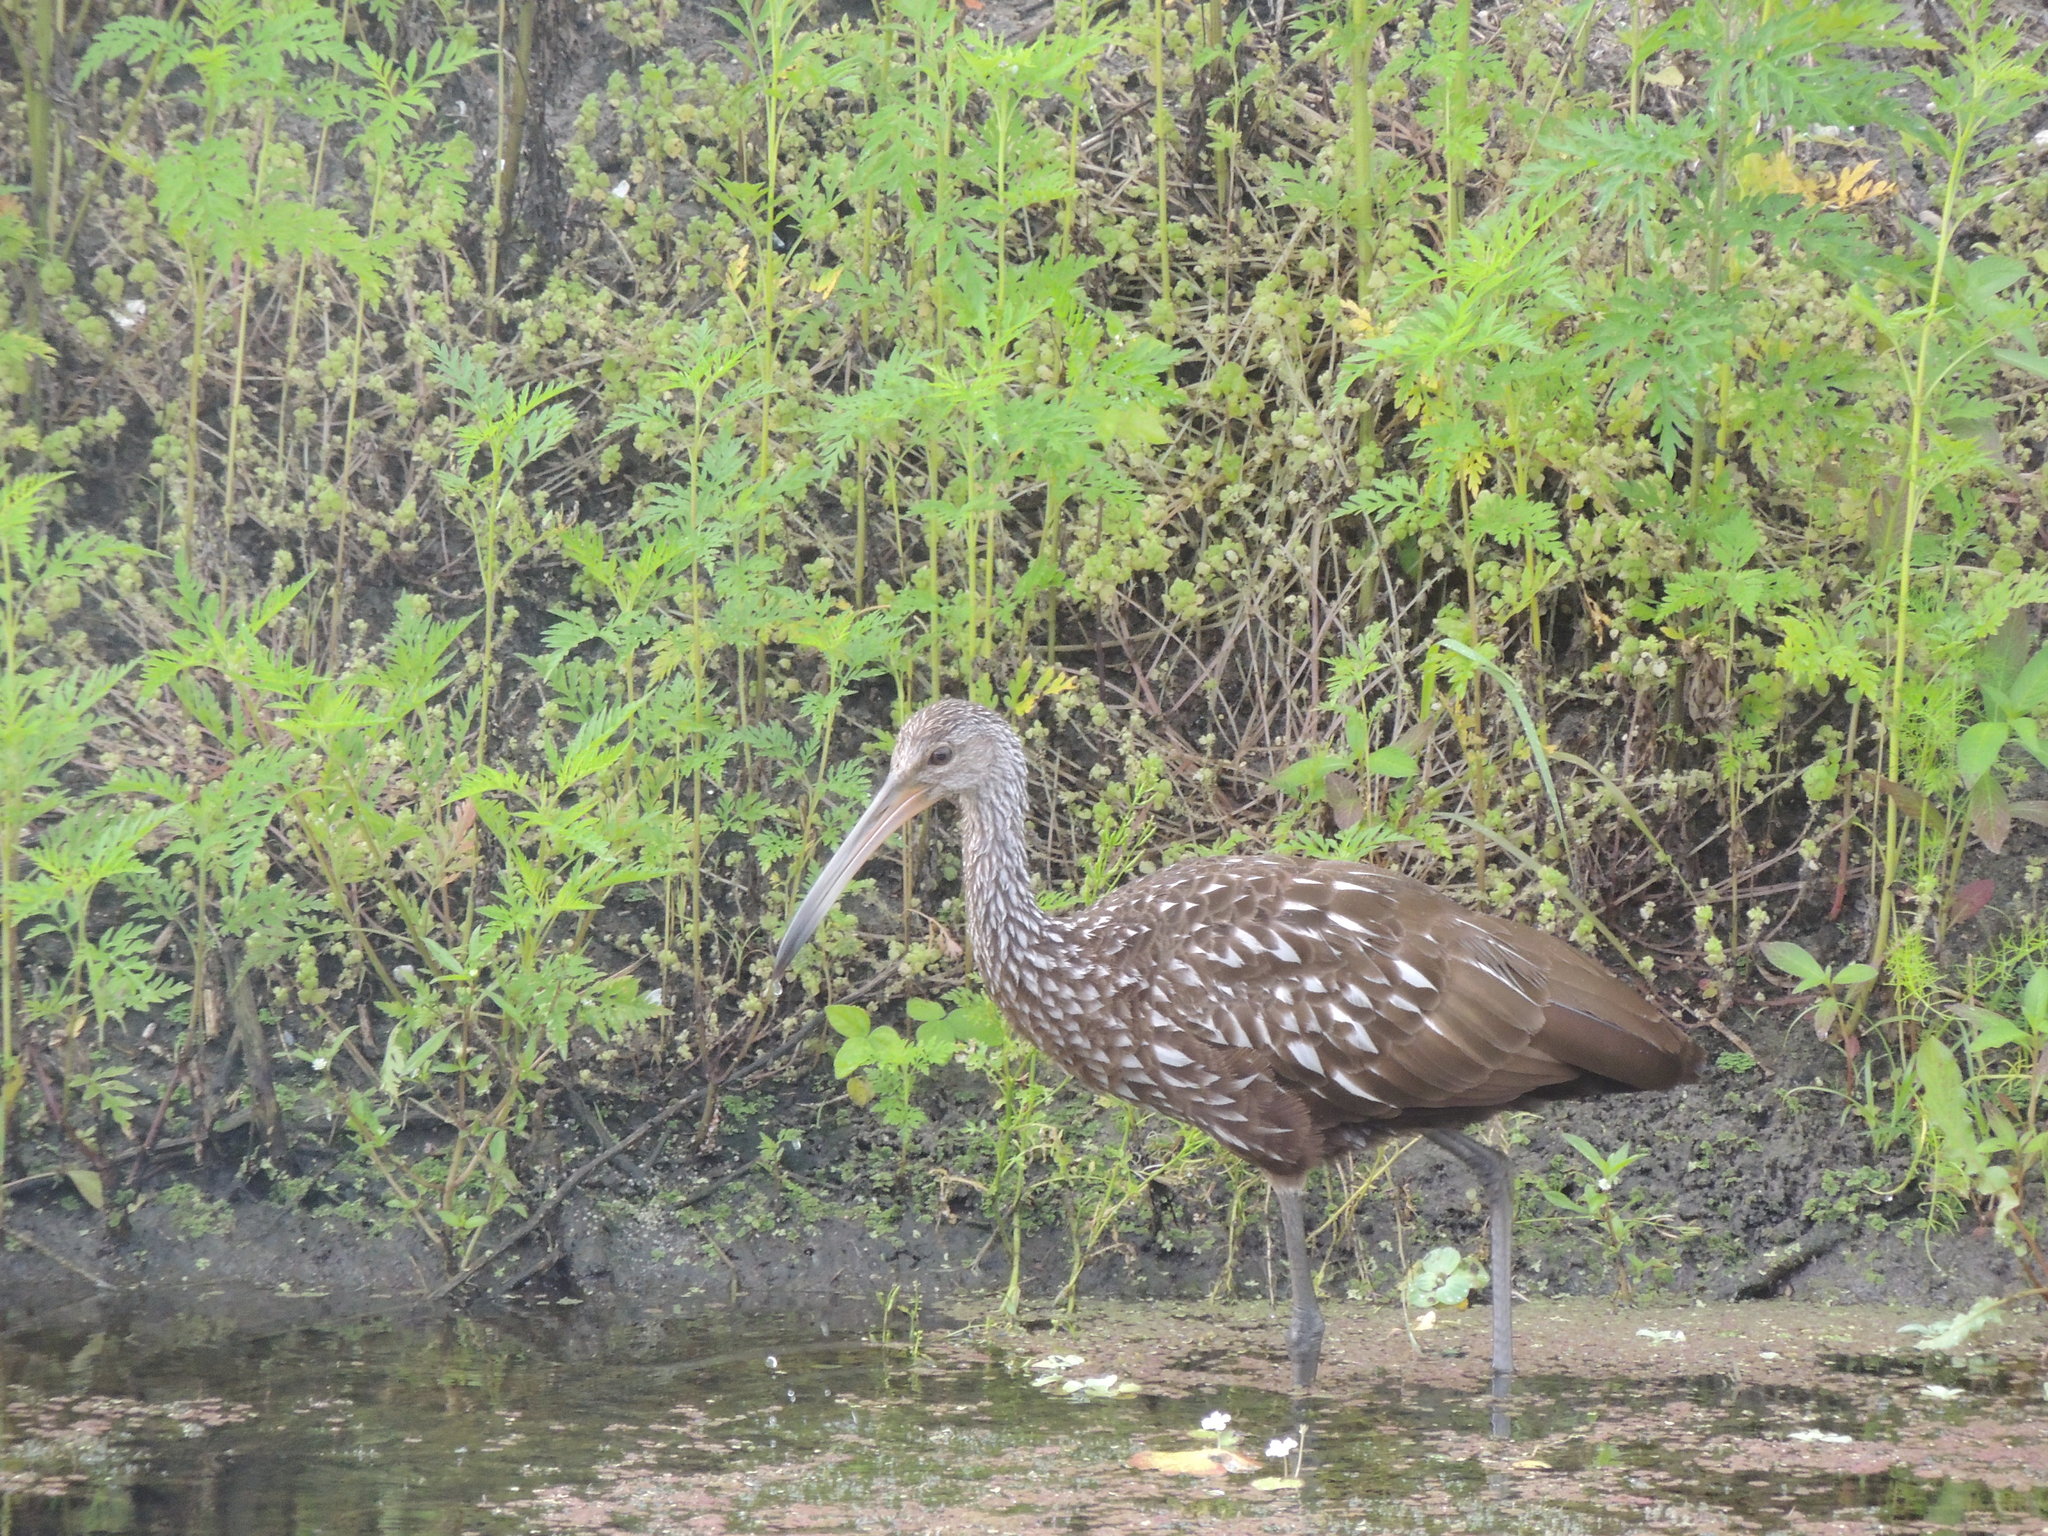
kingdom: Animalia
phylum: Chordata
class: Aves
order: Gruiformes
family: Aramidae
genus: Aramus
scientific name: Aramus guarauna
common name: Limpkin
